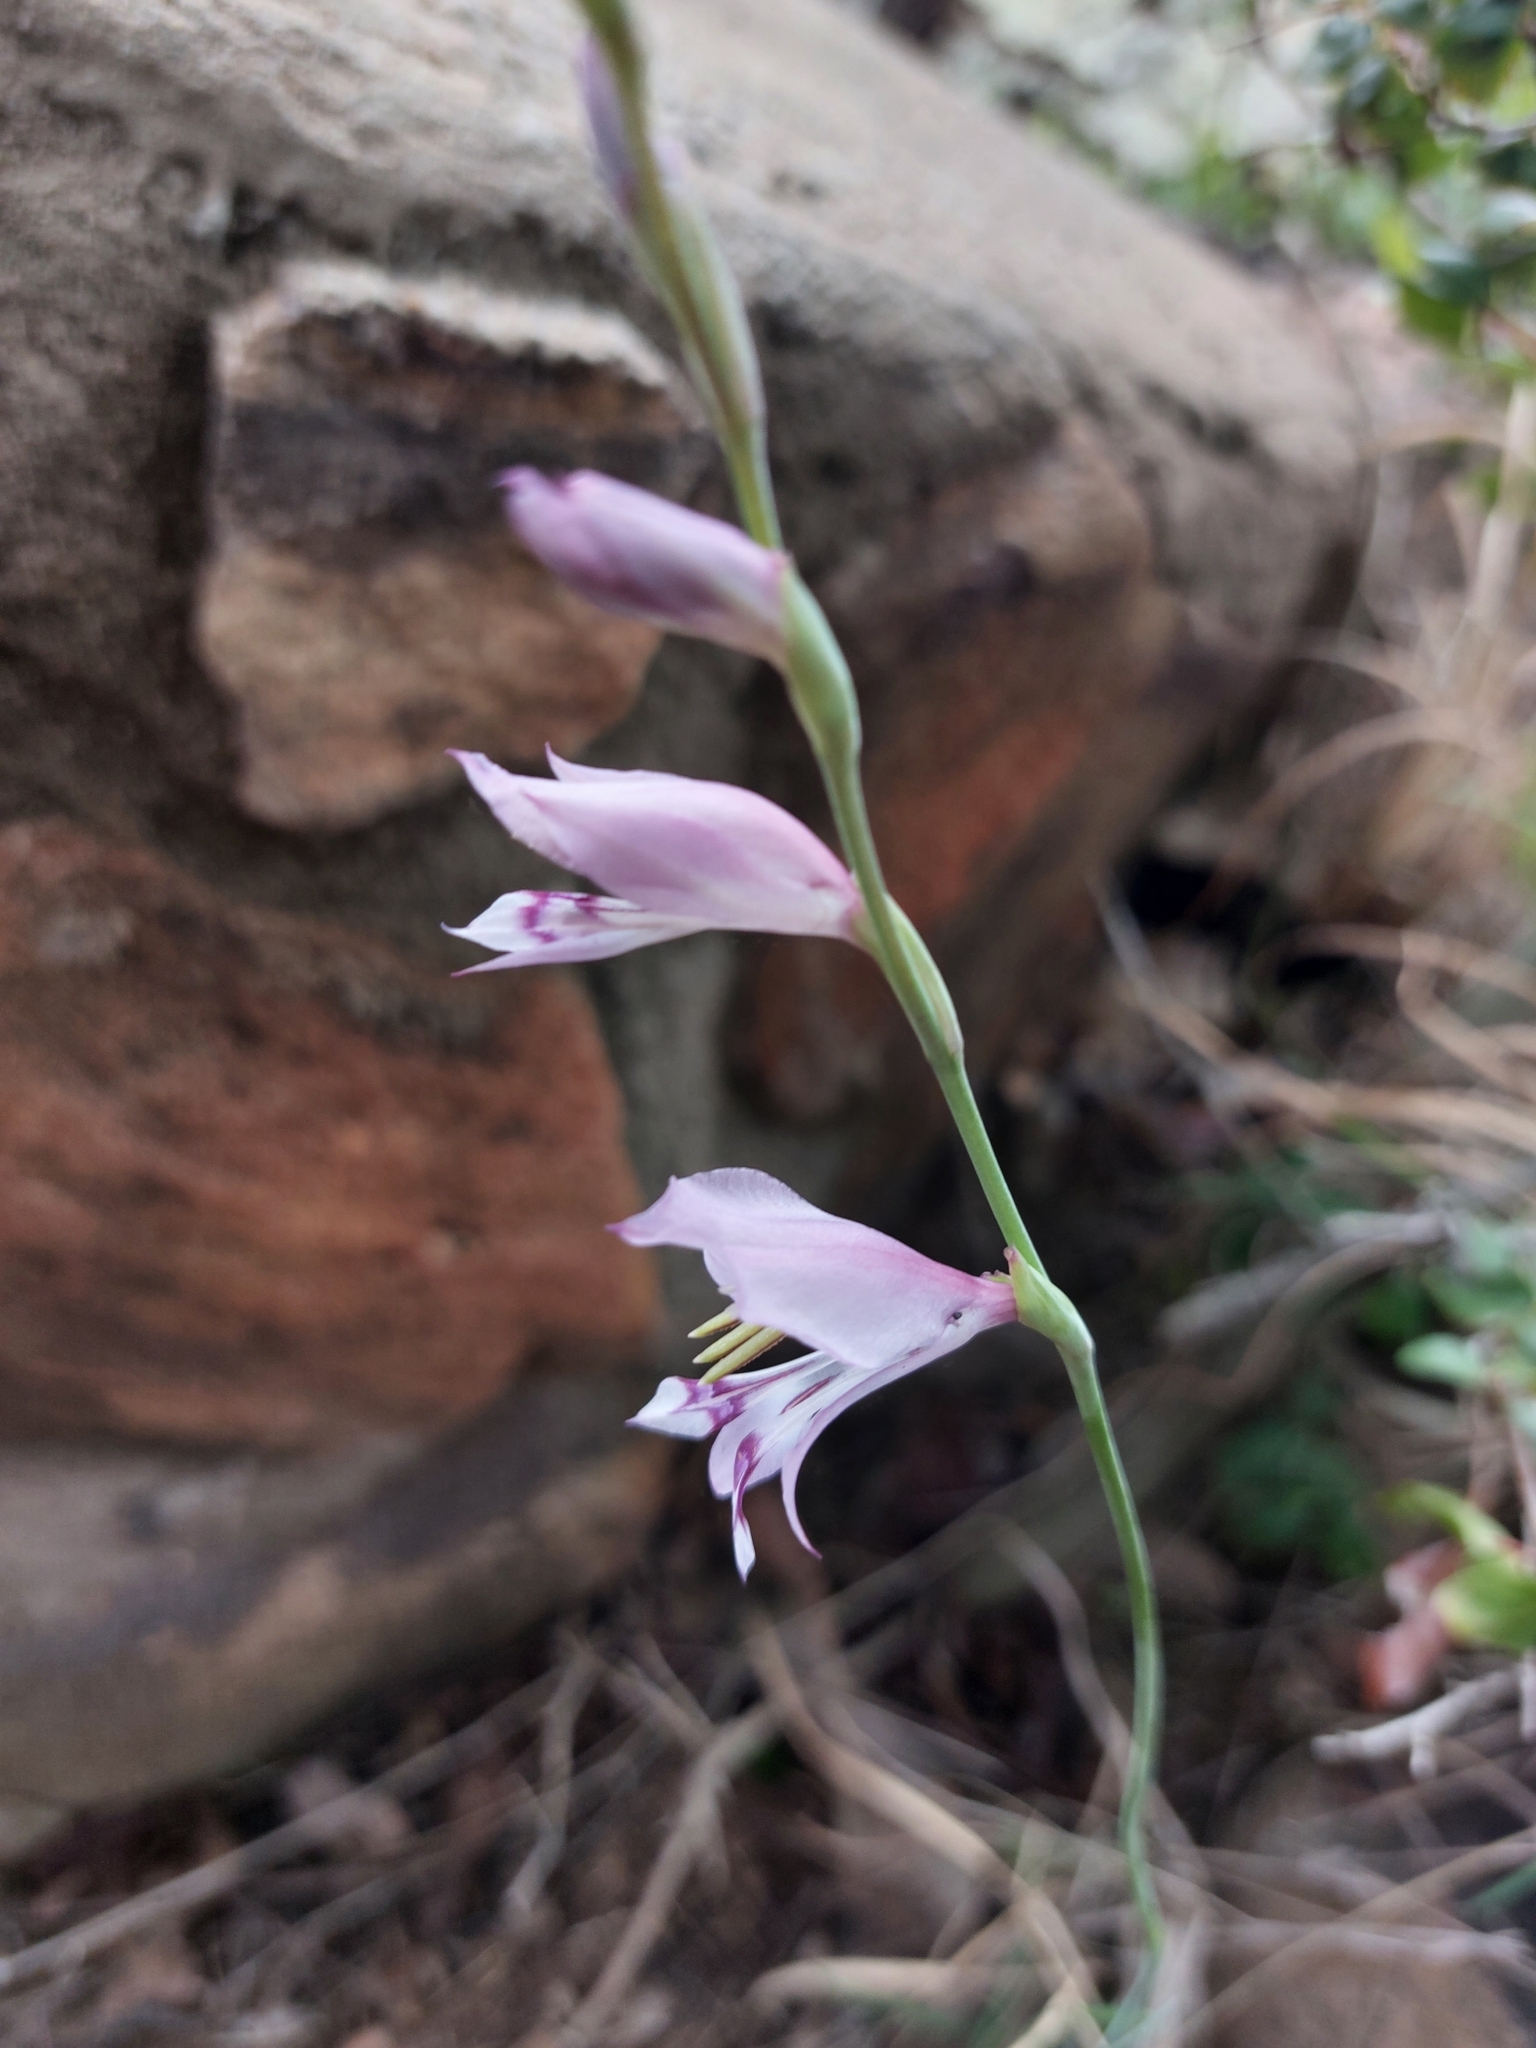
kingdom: Plantae
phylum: Tracheophyta
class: Liliopsida
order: Asparagales
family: Iridaceae
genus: Gladiolus
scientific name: Gladiolus oatesii
